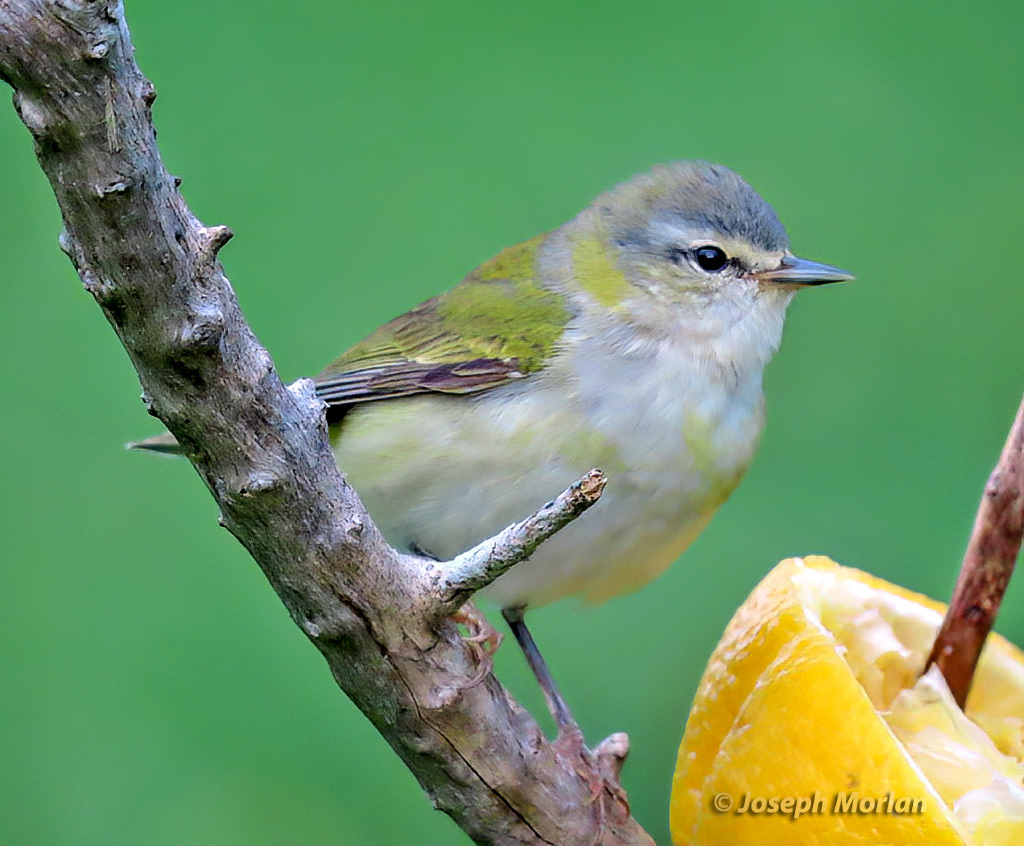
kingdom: Animalia
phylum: Chordata
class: Aves
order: Passeriformes
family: Parulidae
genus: Leiothlypis
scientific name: Leiothlypis peregrina
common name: Tennessee warbler
